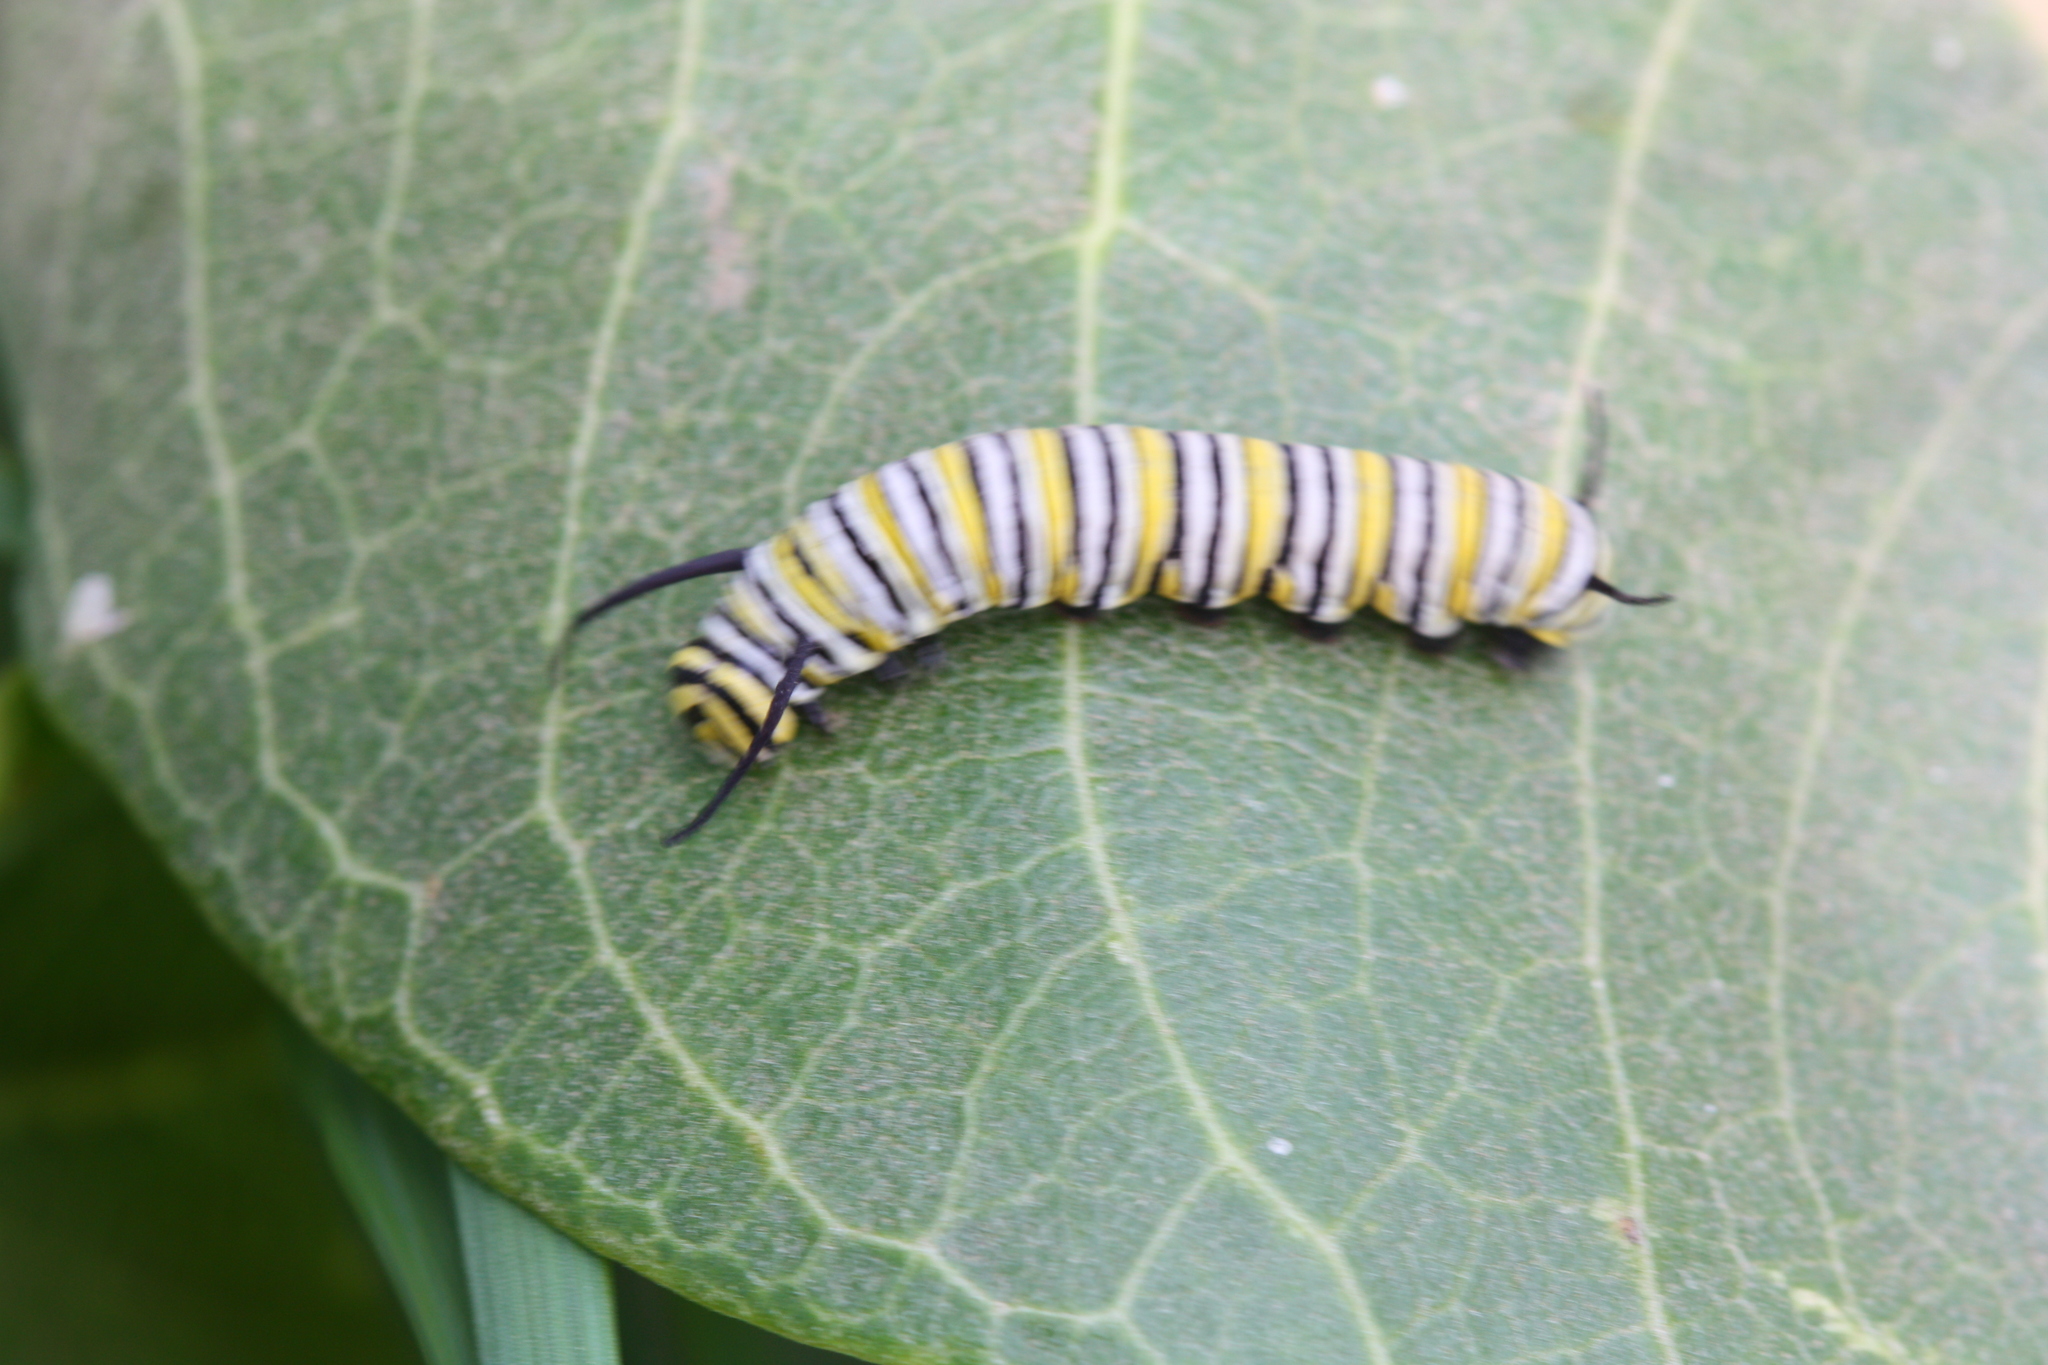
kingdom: Animalia
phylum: Arthropoda
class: Insecta
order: Lepidoptera
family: Nymphalidae
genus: Danaus
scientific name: Danaus plexippus
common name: Monarch
